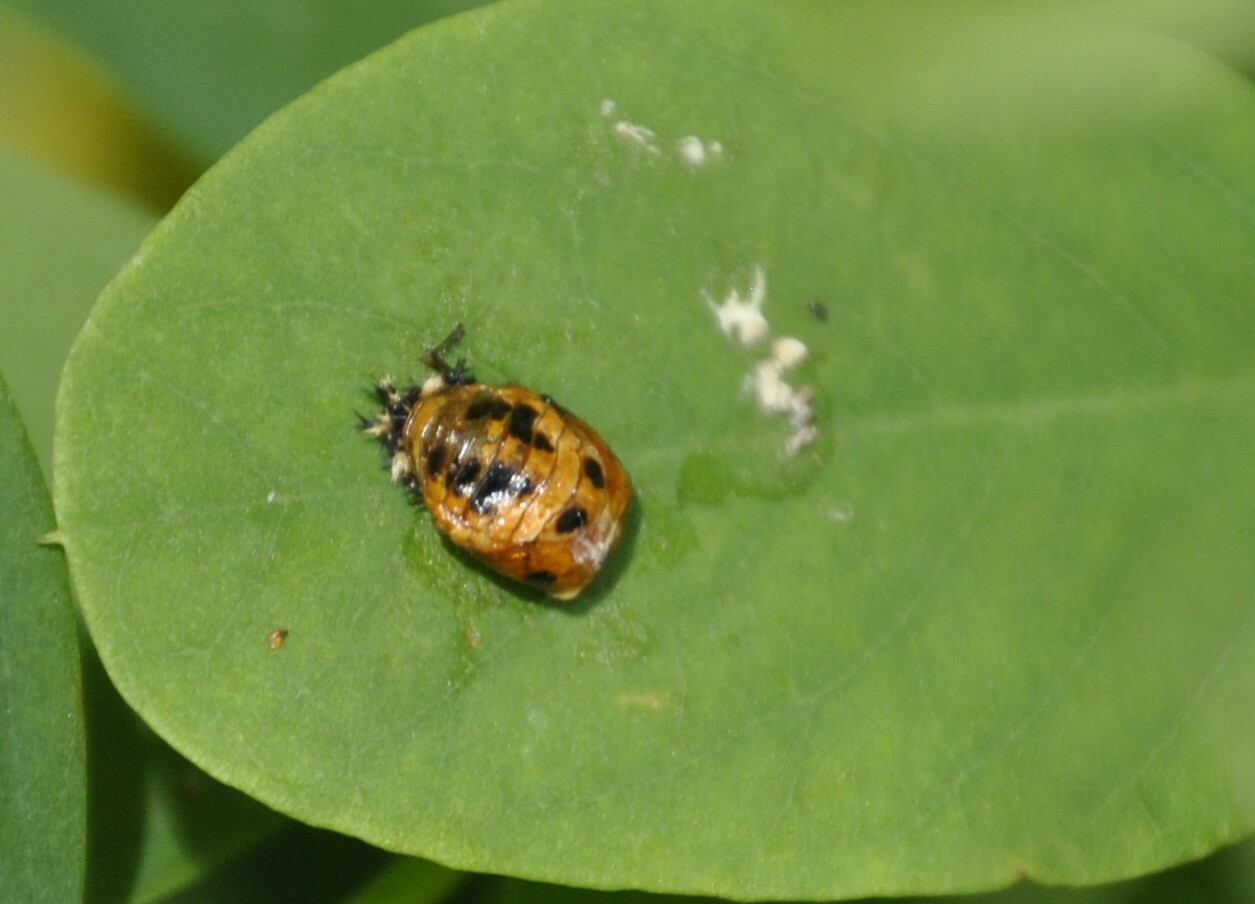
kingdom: Animalia
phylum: Arthropoda
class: Insecta
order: Coleoptera
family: Coccinellidae
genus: Harmonia
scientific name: Harmonia axyridis
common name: Harlequin ladybird
